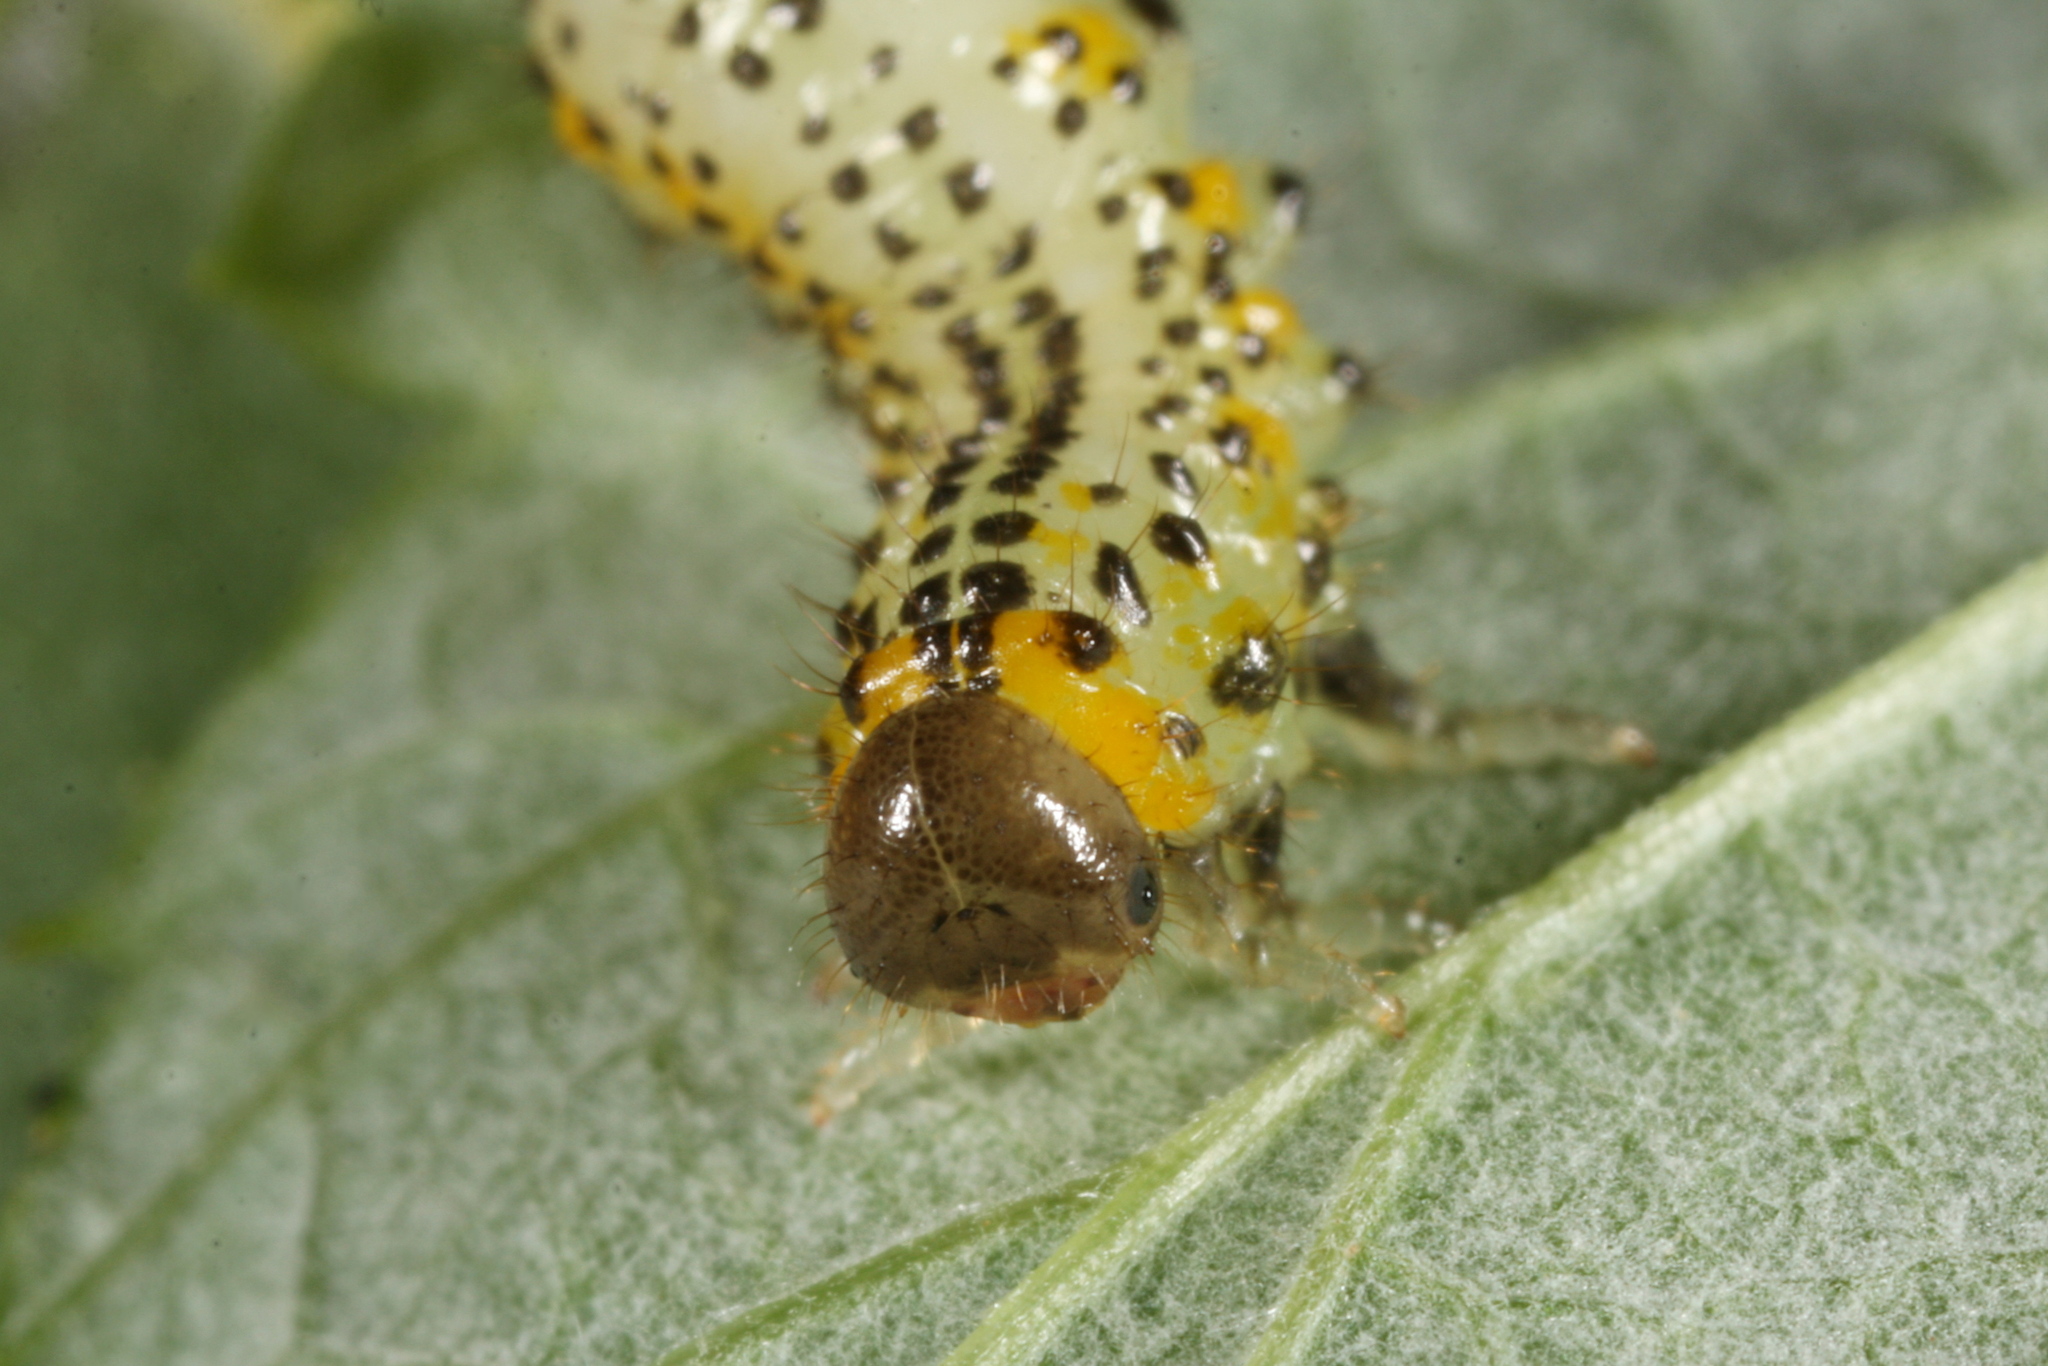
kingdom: Animalia
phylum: Arthropoda
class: Insecta
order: Hymenoptera
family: Argidae
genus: Arge
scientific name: Arge gracilicornis
